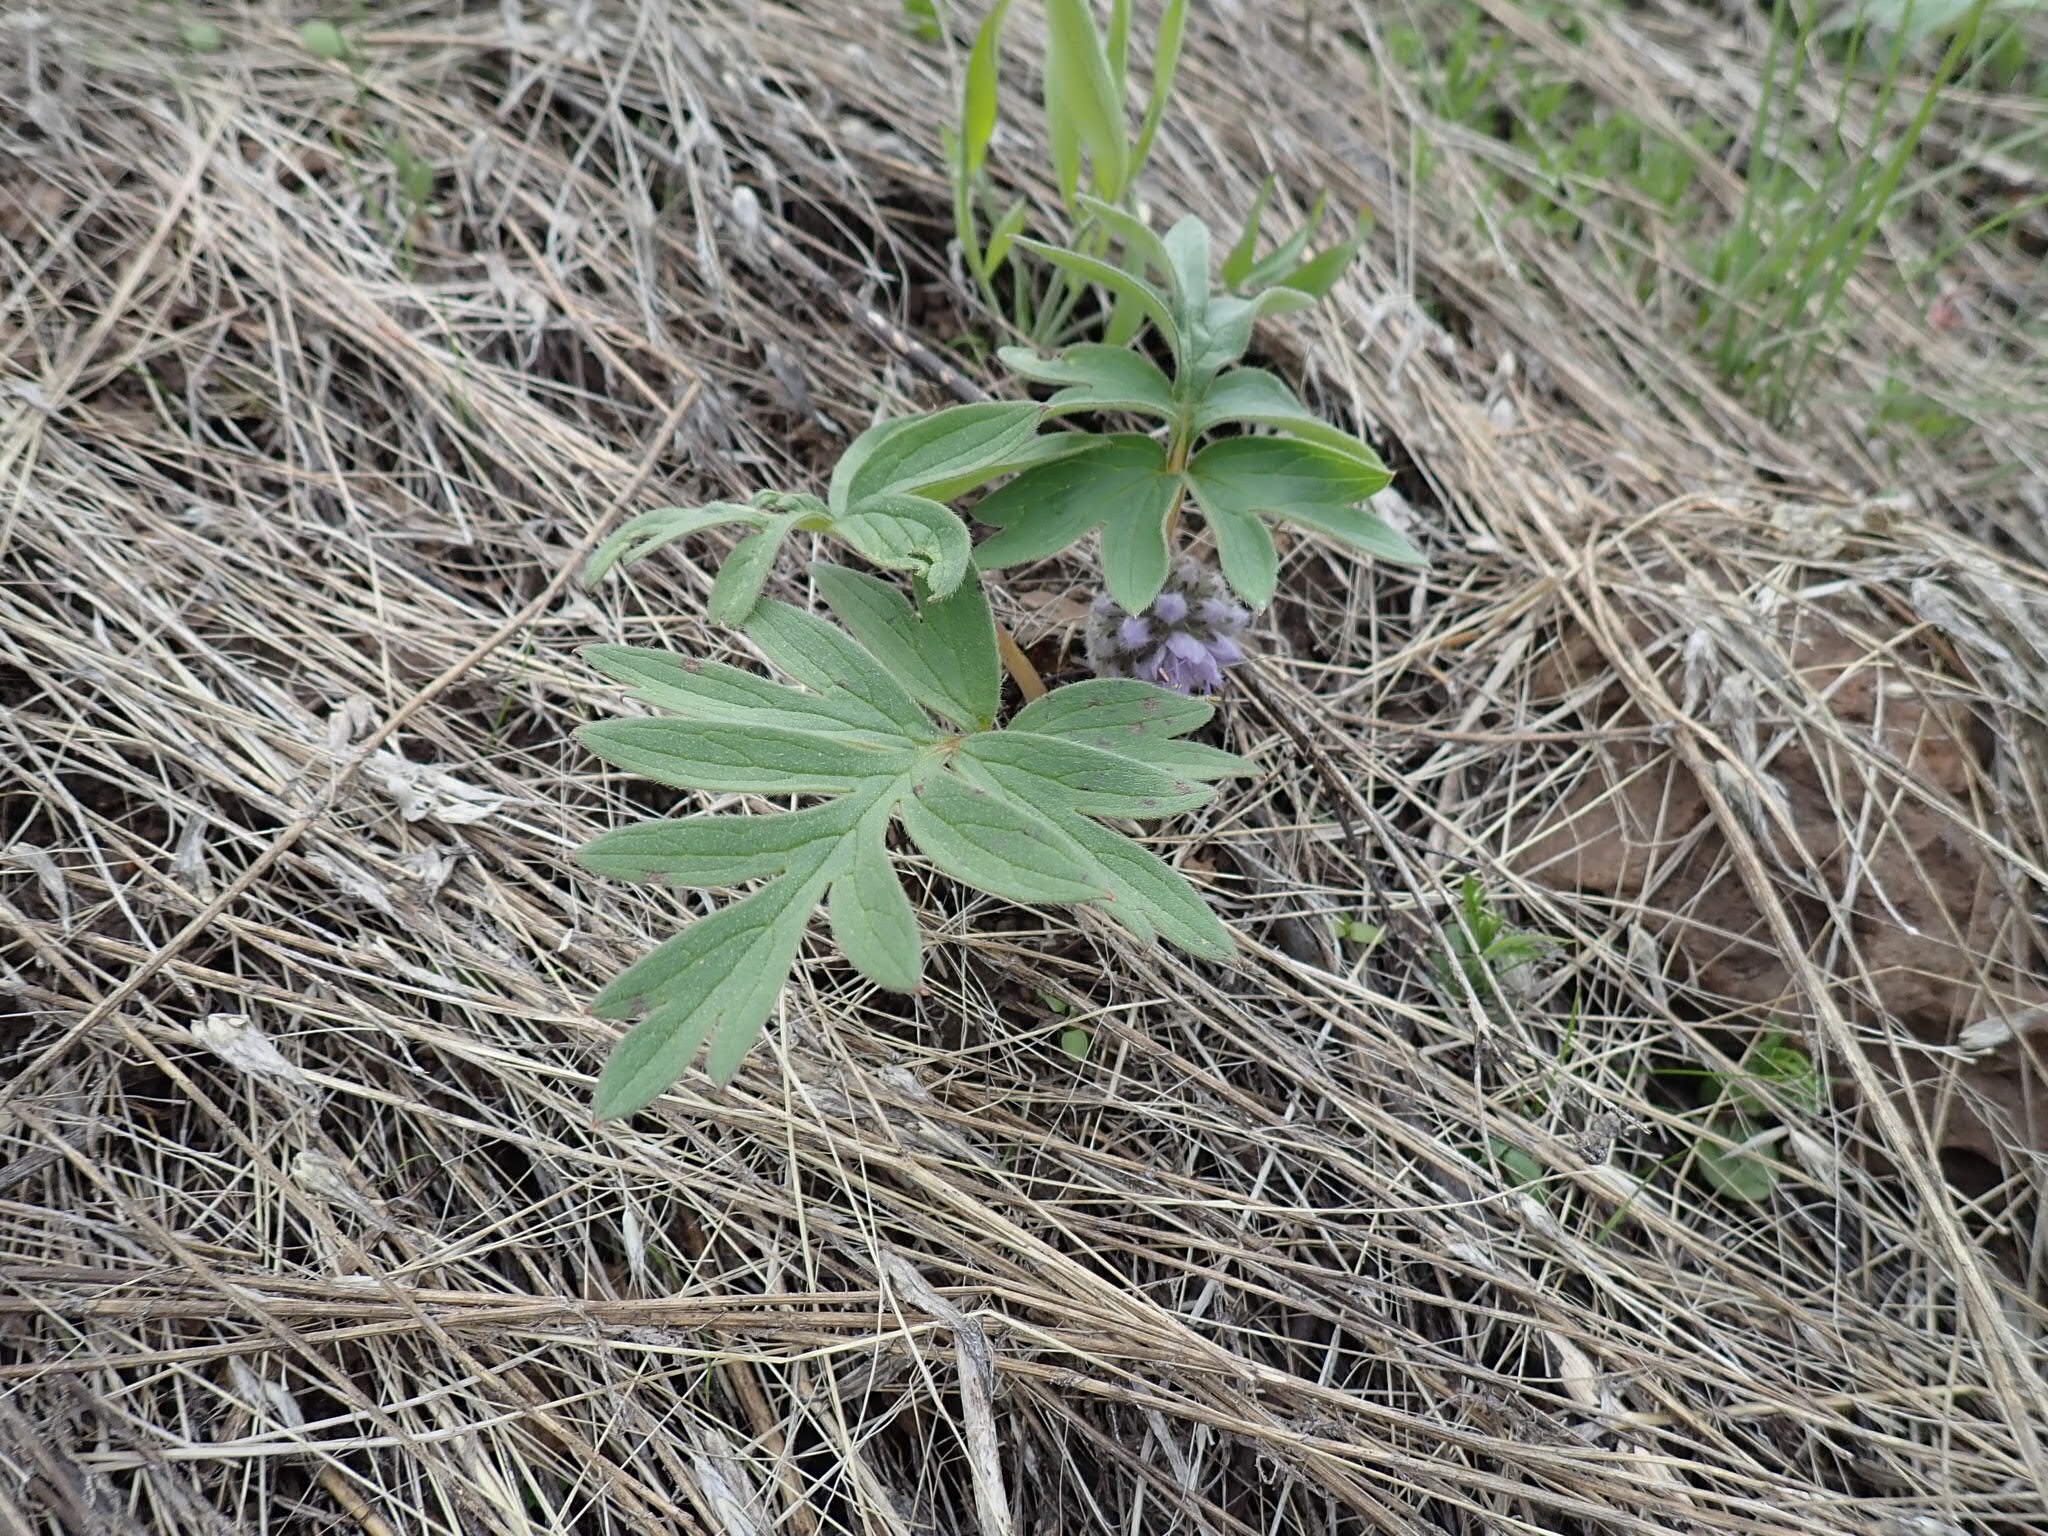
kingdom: Plantae
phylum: Tracheophyta
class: Magnoliopsida
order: Boraginales
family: Hydrophyllaceae
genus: Hydrophyllum
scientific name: Hydrophyllum capitatum
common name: Woollen-breeches
